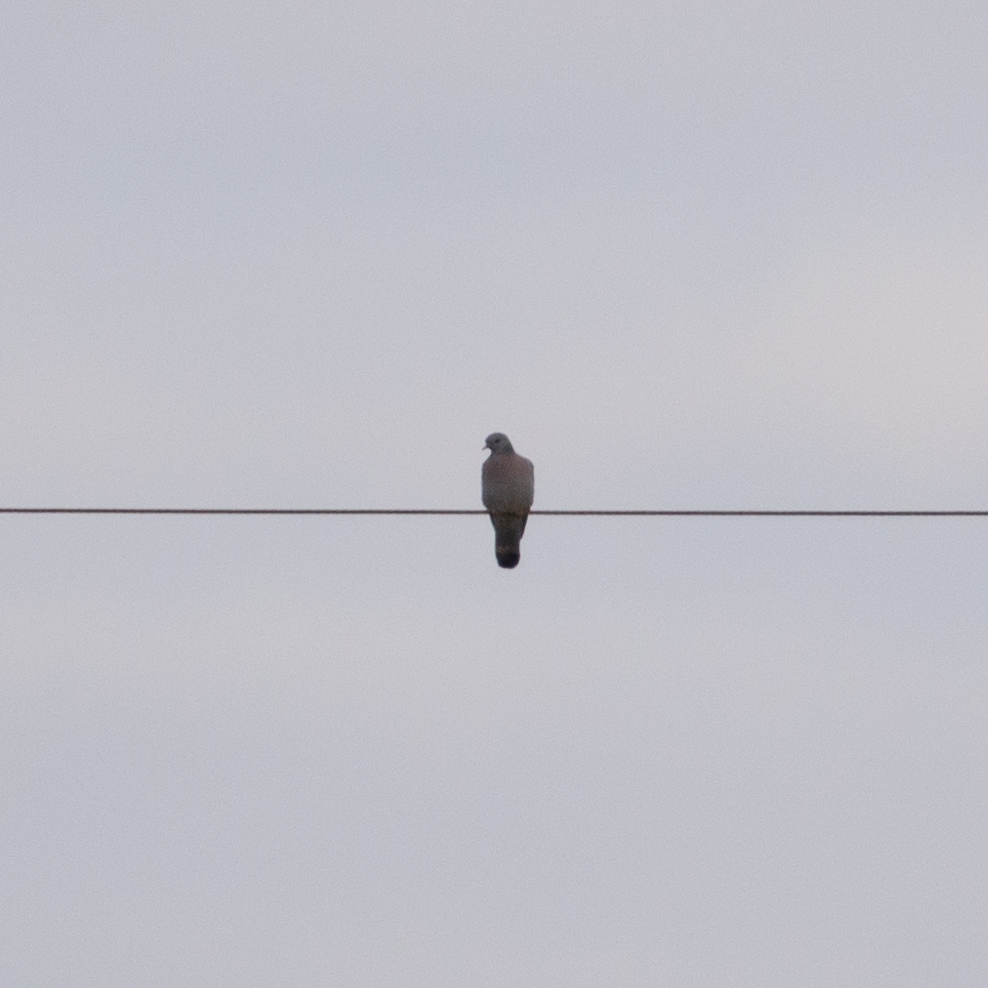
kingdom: Animalia
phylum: Chordata
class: Aves
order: Columbiformes
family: Columbidae
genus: Columba
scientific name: Columba oenas
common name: Stock dove
